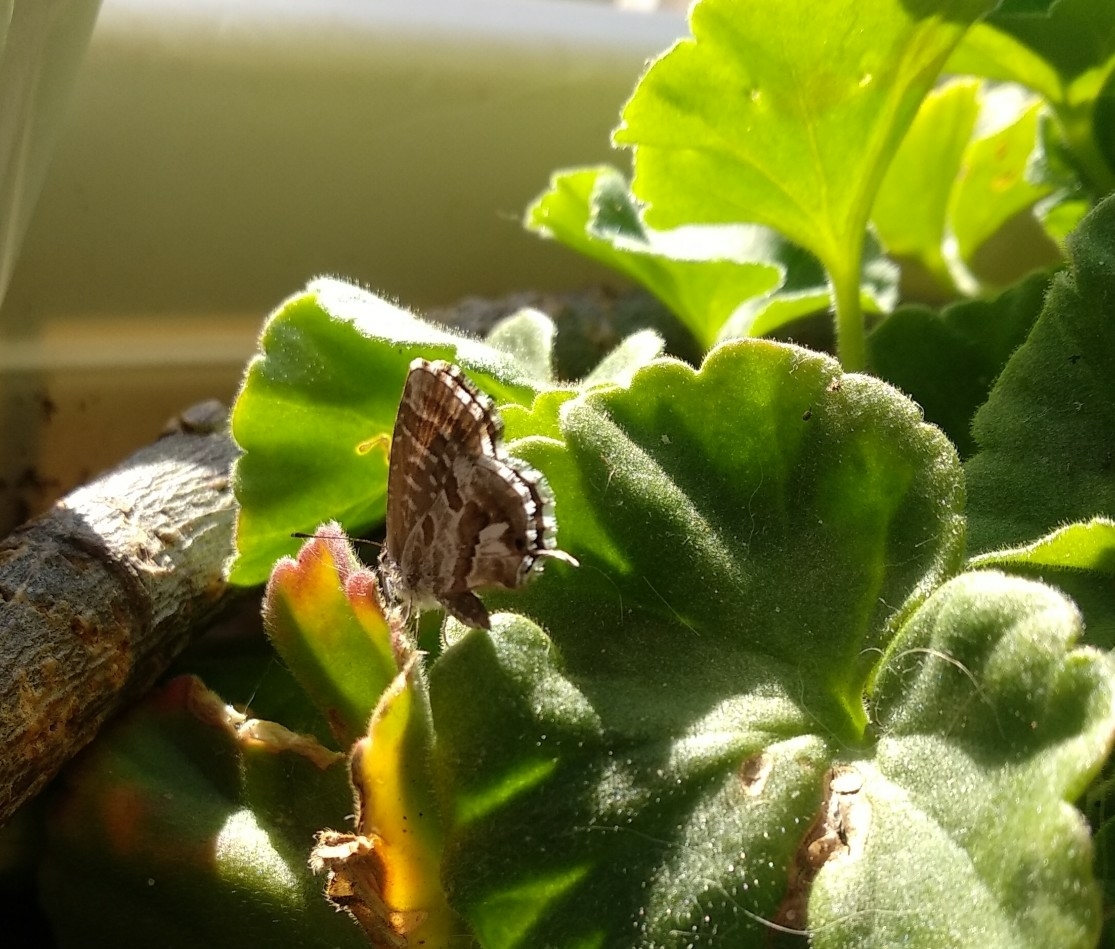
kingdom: Animalia
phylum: Arthropoda
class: Insecta
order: Lepidoptera
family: Lycaenidae
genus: Cacyreus
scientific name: Cacyreus marshalli
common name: Geranium bronze
